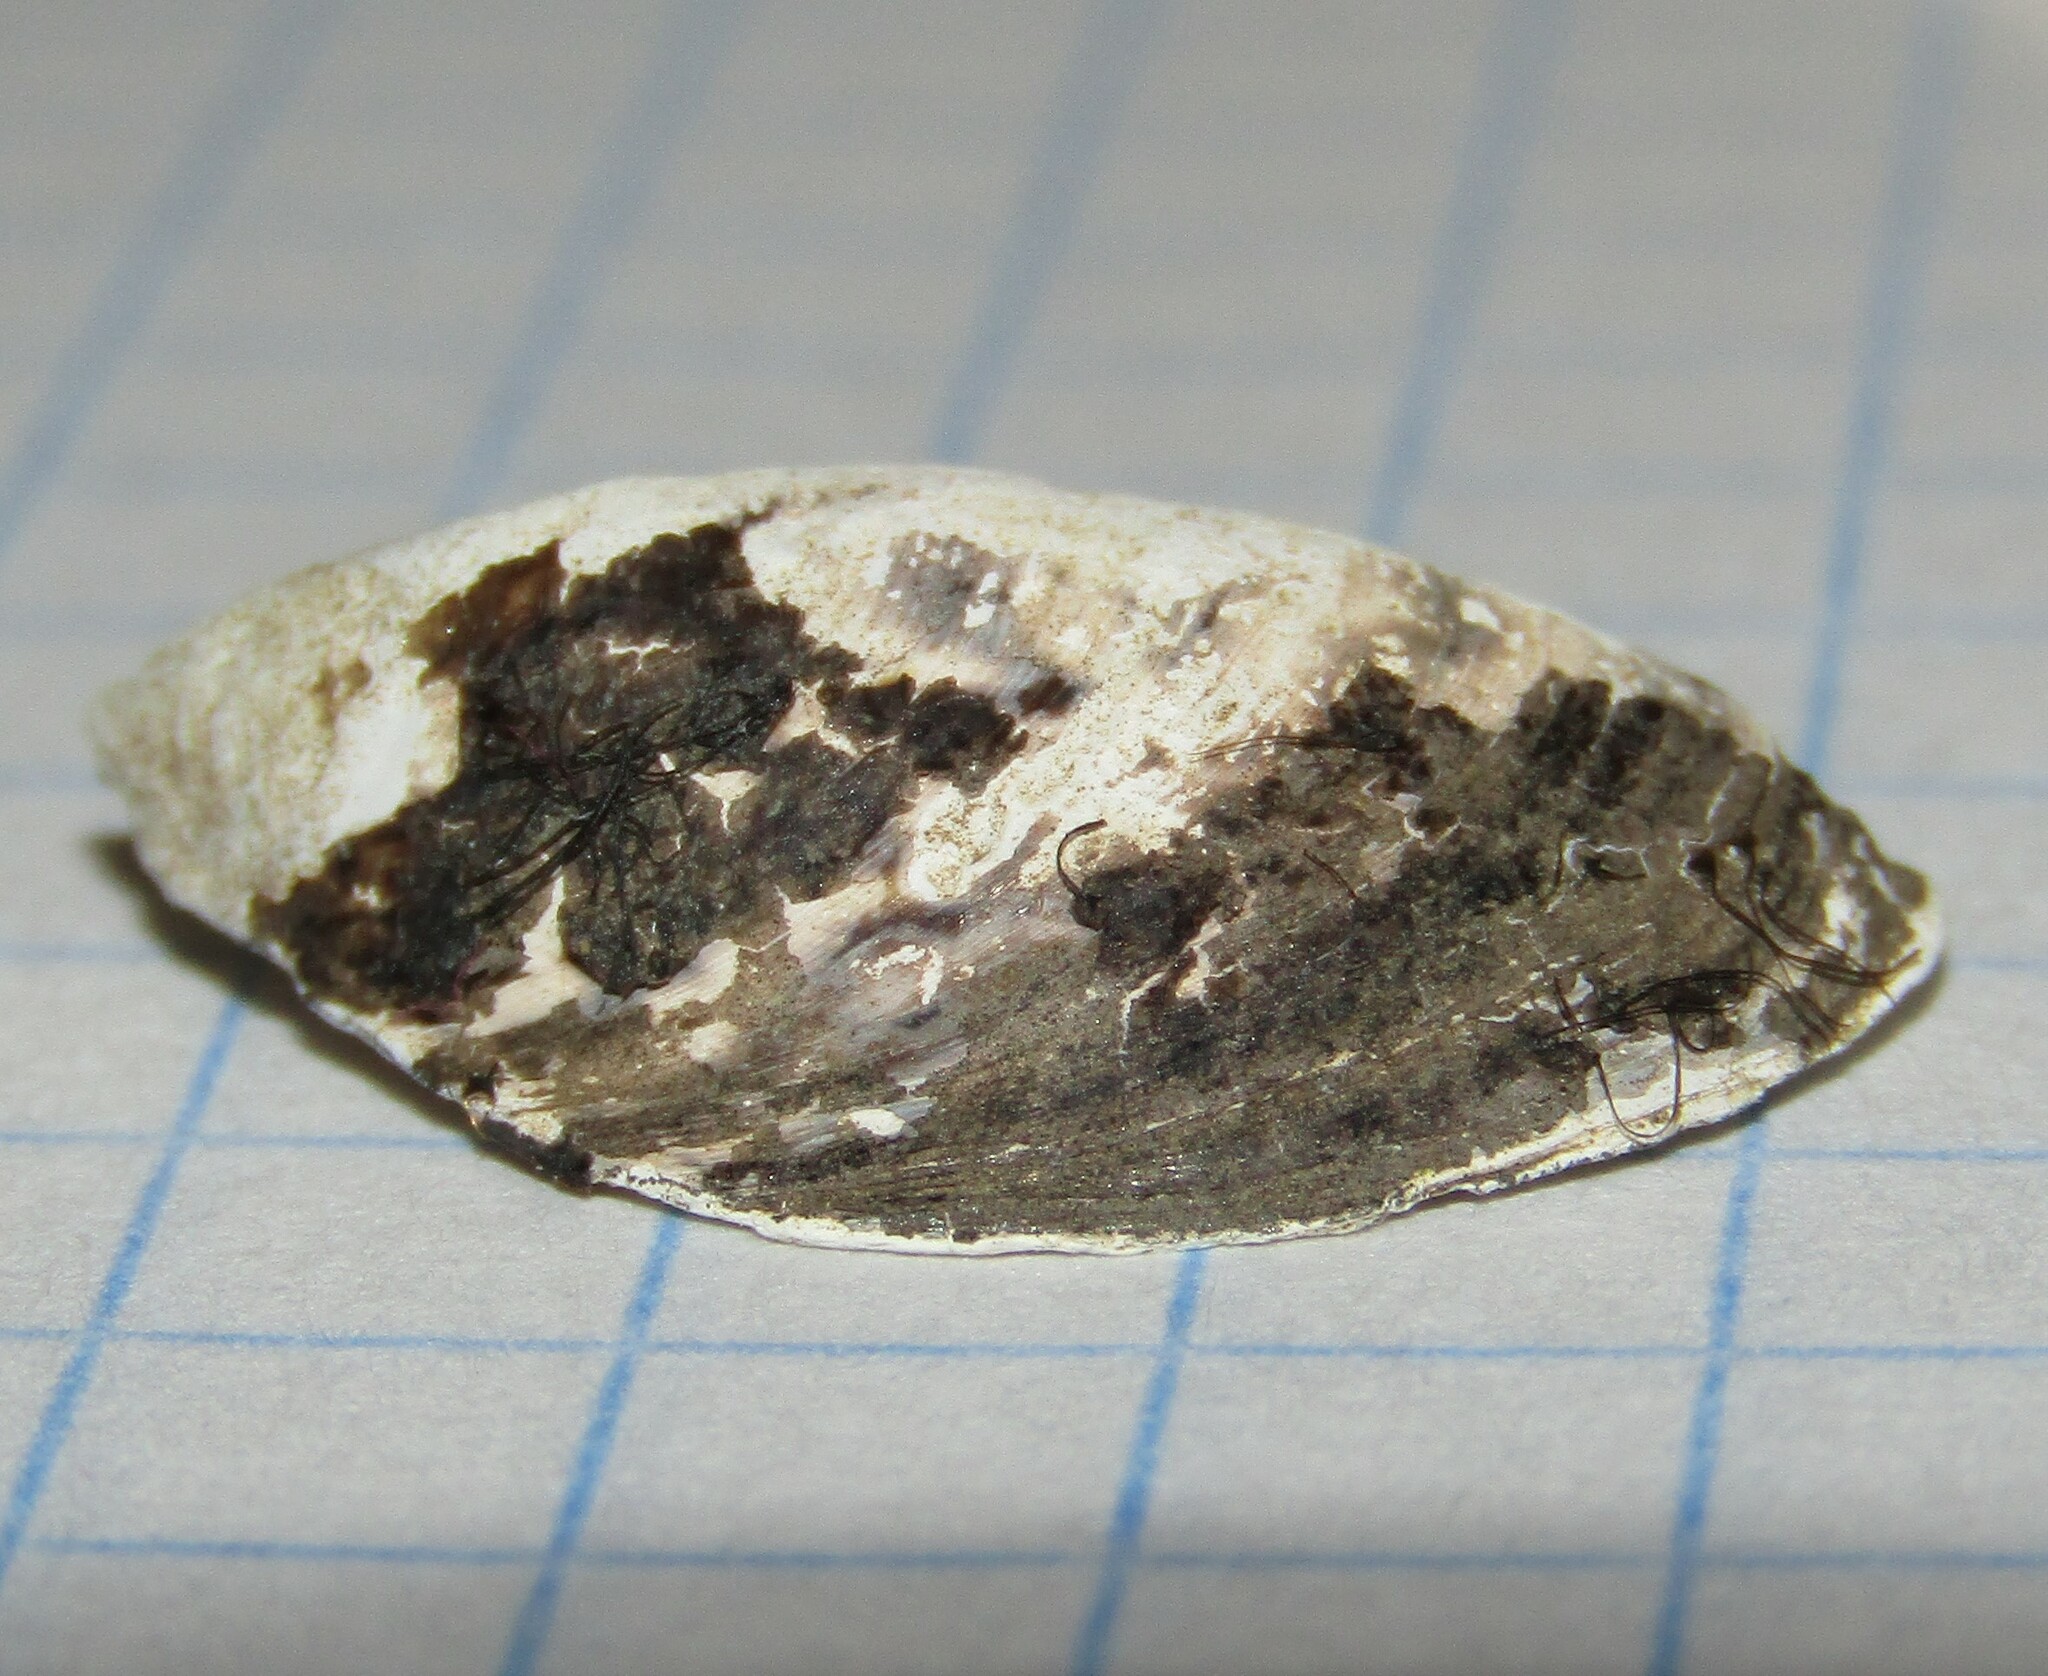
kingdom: Animalia
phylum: Mollusca
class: Bivalvia
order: Myida
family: Dreissenidae
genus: Dreissena
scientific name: Dreissena polymorpha
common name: Zebra mussel
